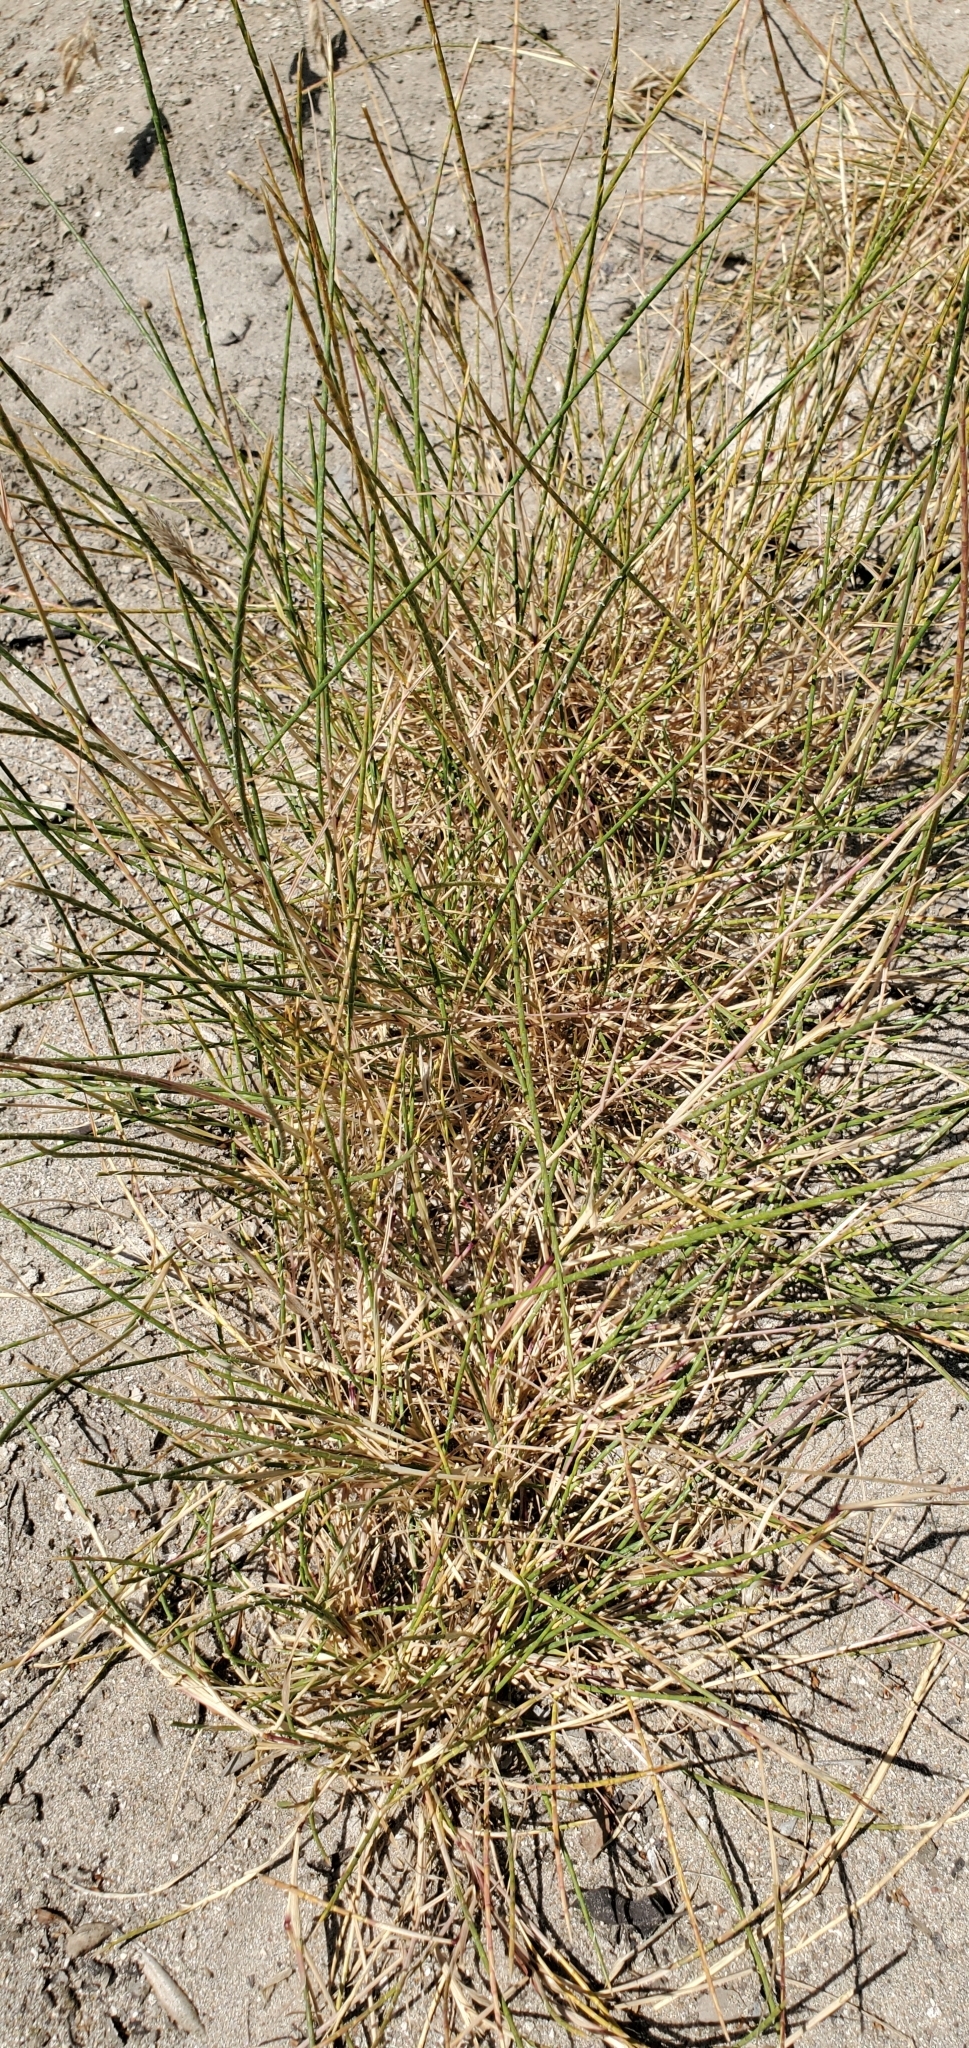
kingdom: Plantae
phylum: Tracheophyta
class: Liliopsida
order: Poales
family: Poaceae
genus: Parapholis
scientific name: Parapholis cylindrica
